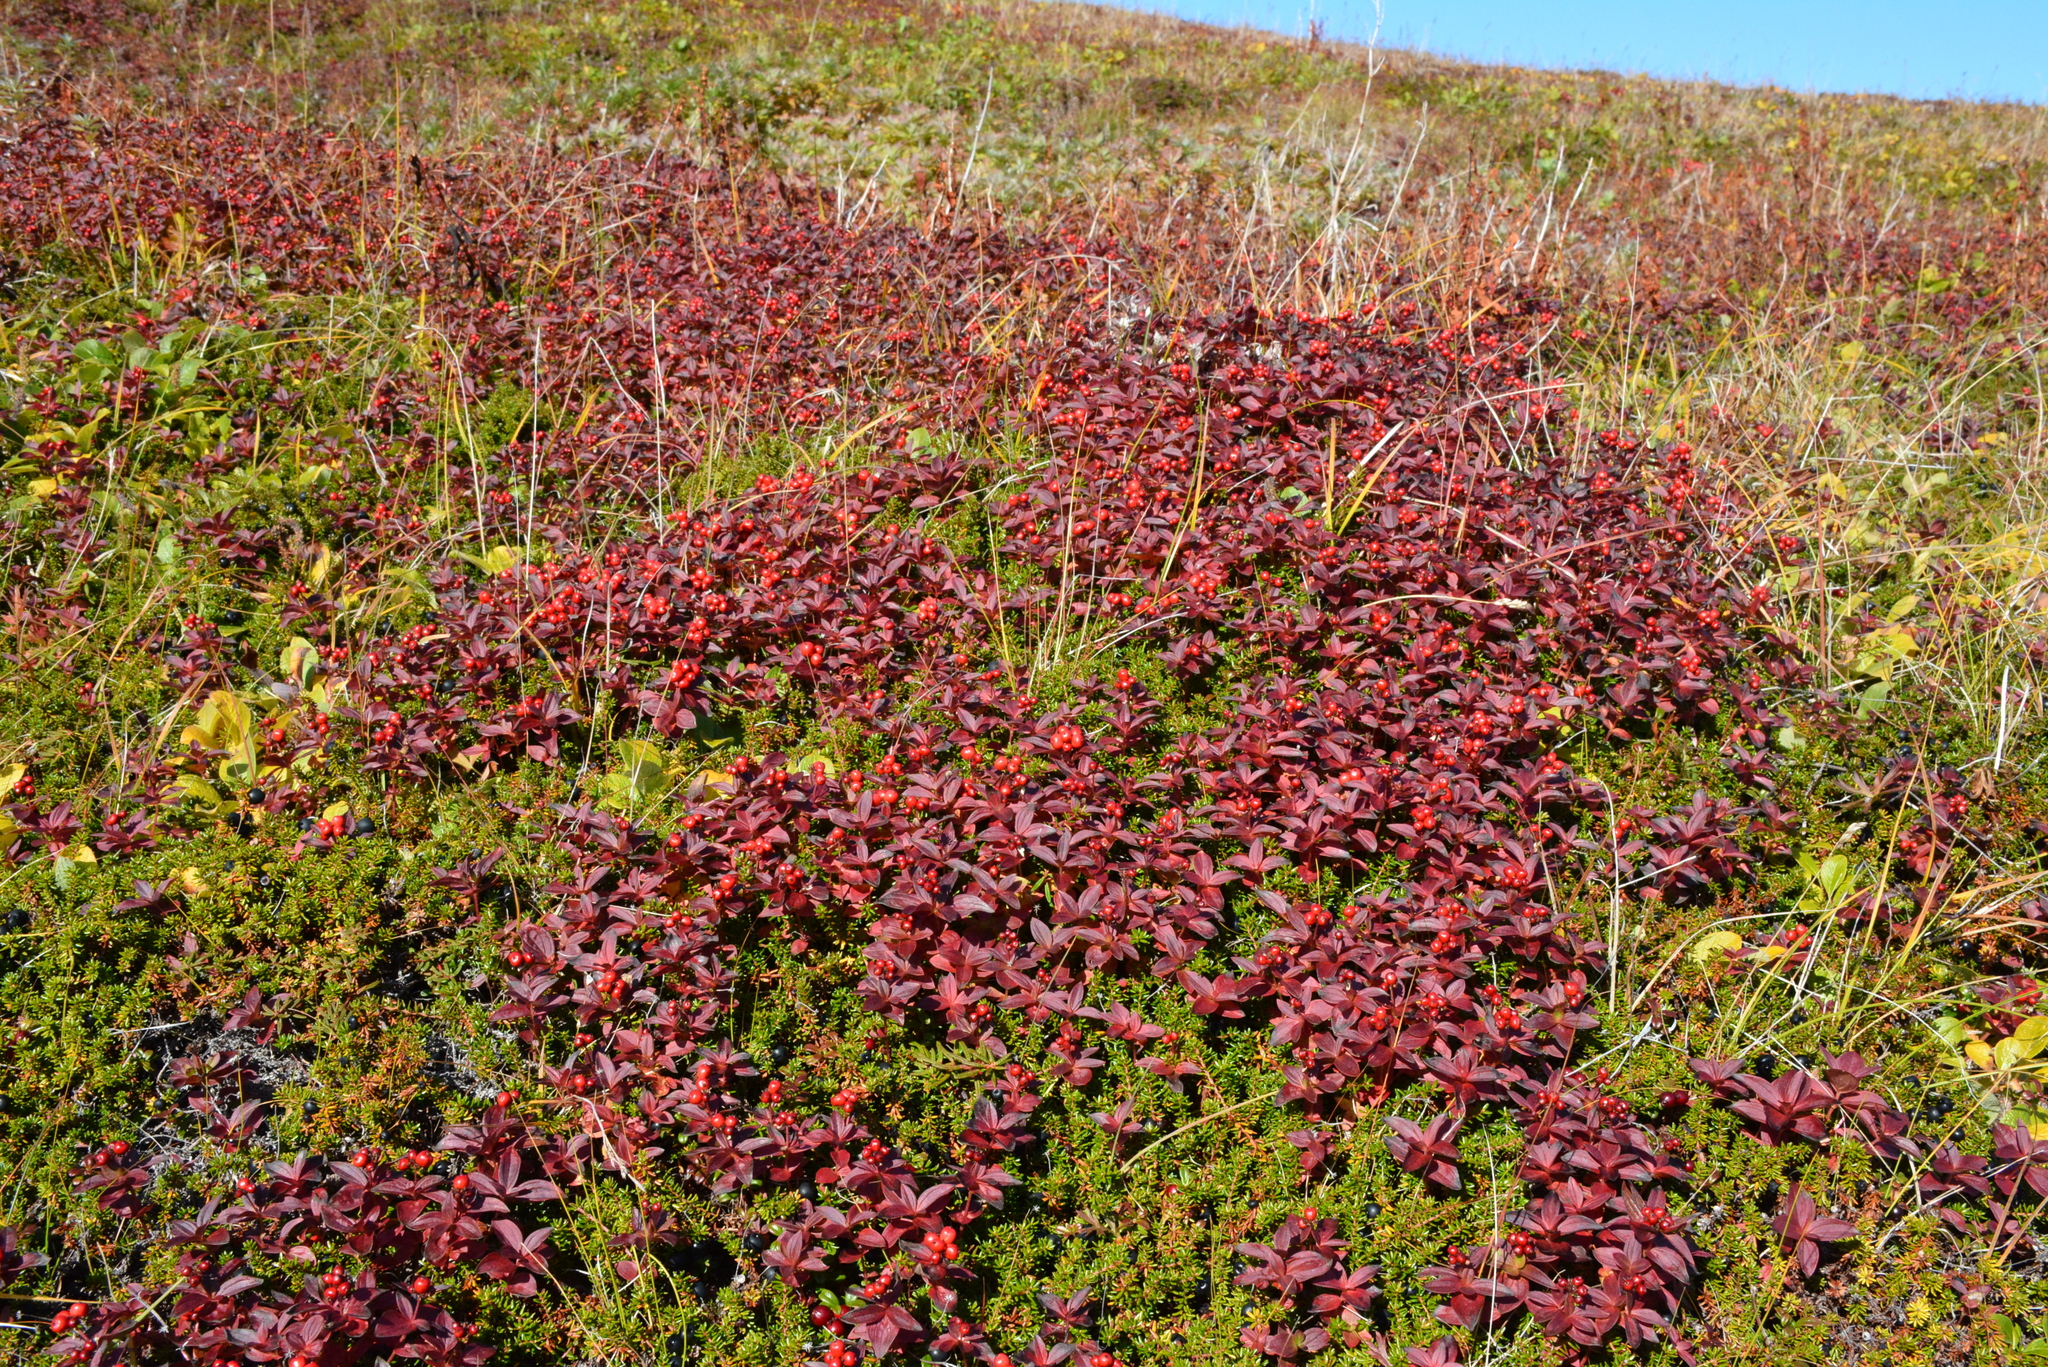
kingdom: Plantae
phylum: Tracheophyta
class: Magnoliopsida
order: Cornales
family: Cornaceae
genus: Cornus
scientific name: Cornus suecica
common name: Dwarf cornel
